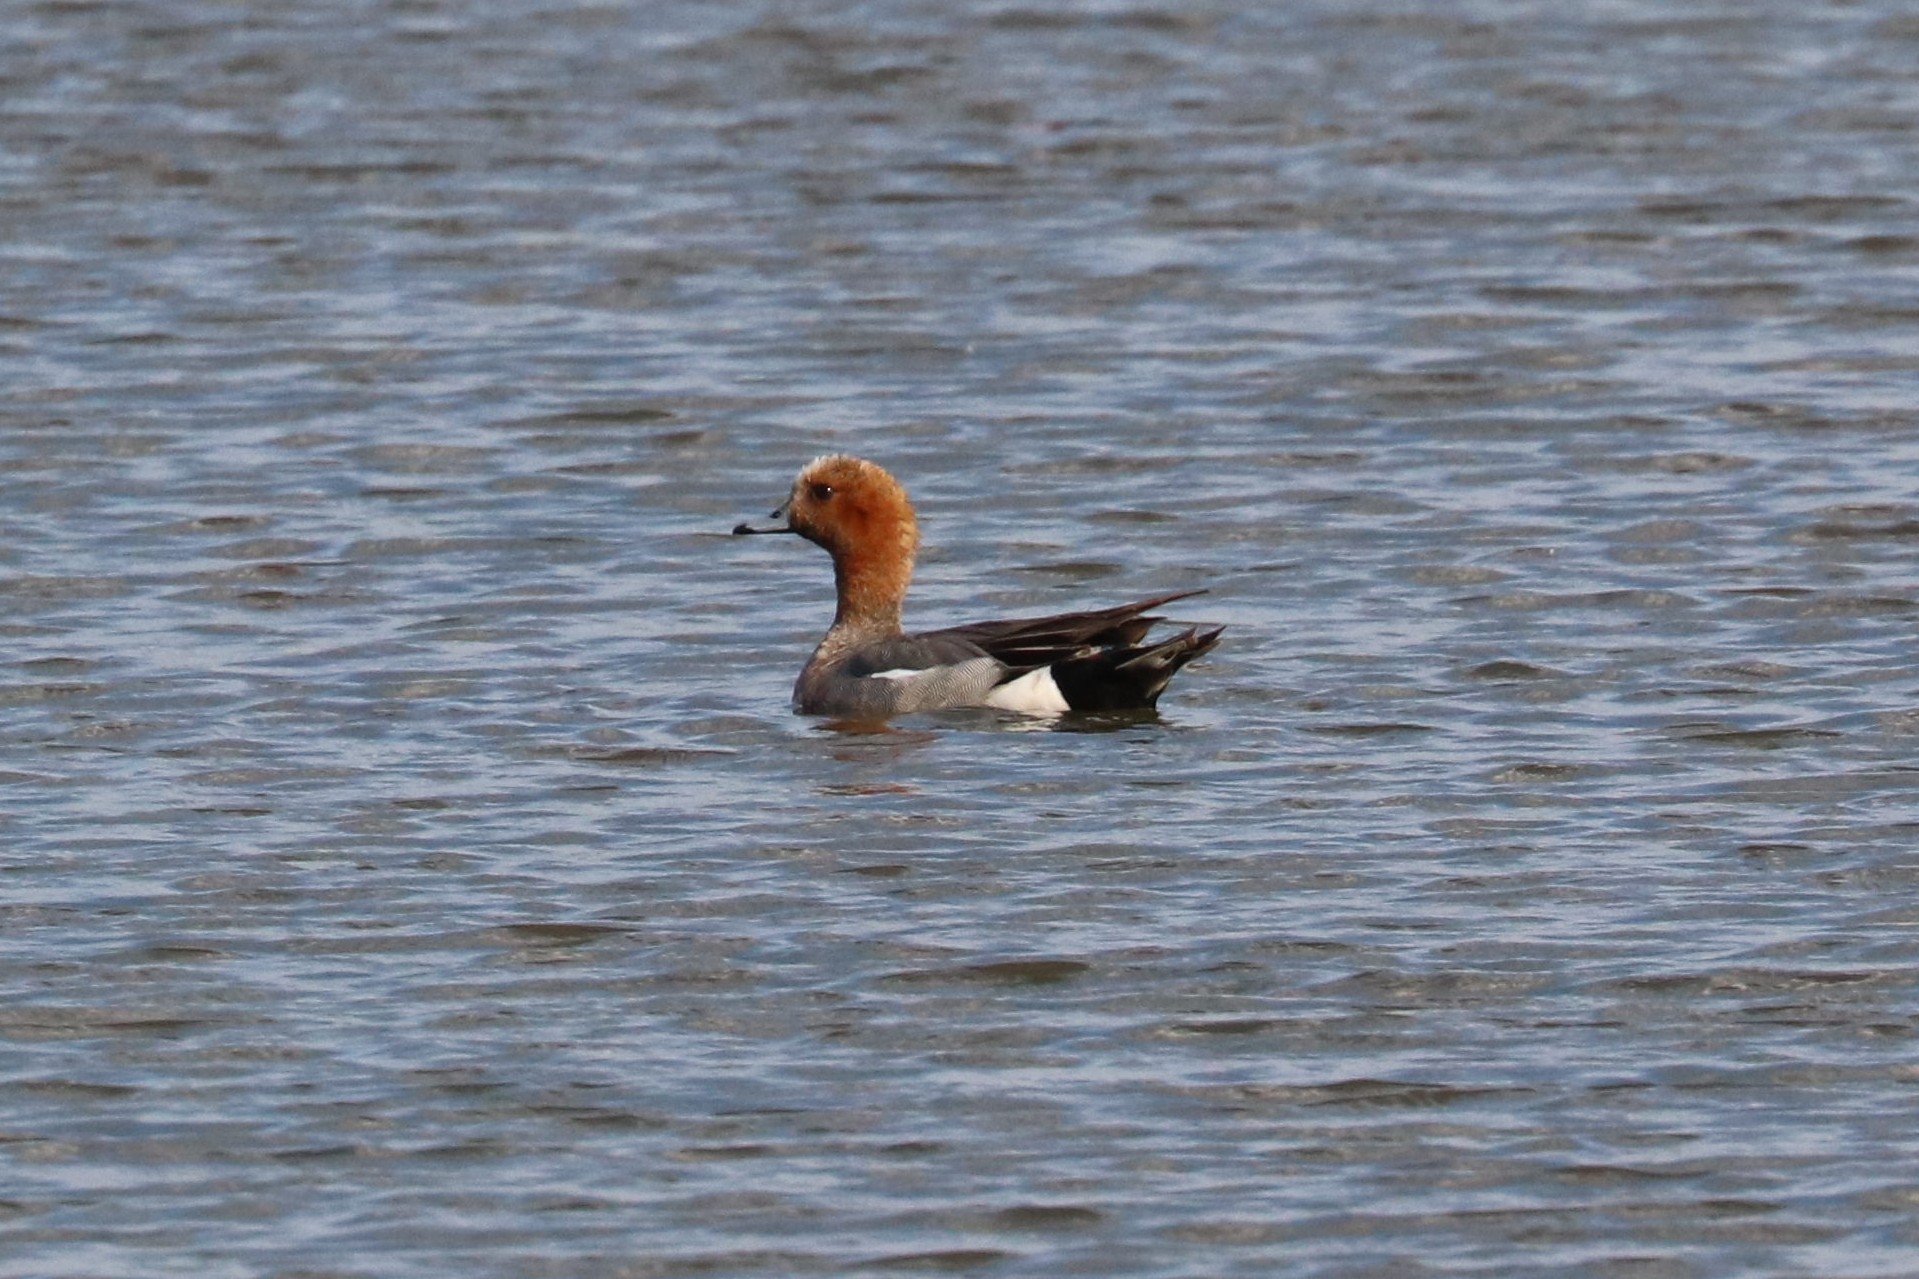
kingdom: Animalia
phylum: Chordata
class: Aves
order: Anseriformes
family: Anatidae
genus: Mareca
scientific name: Mareca penelope
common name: Eurasian wigeon
